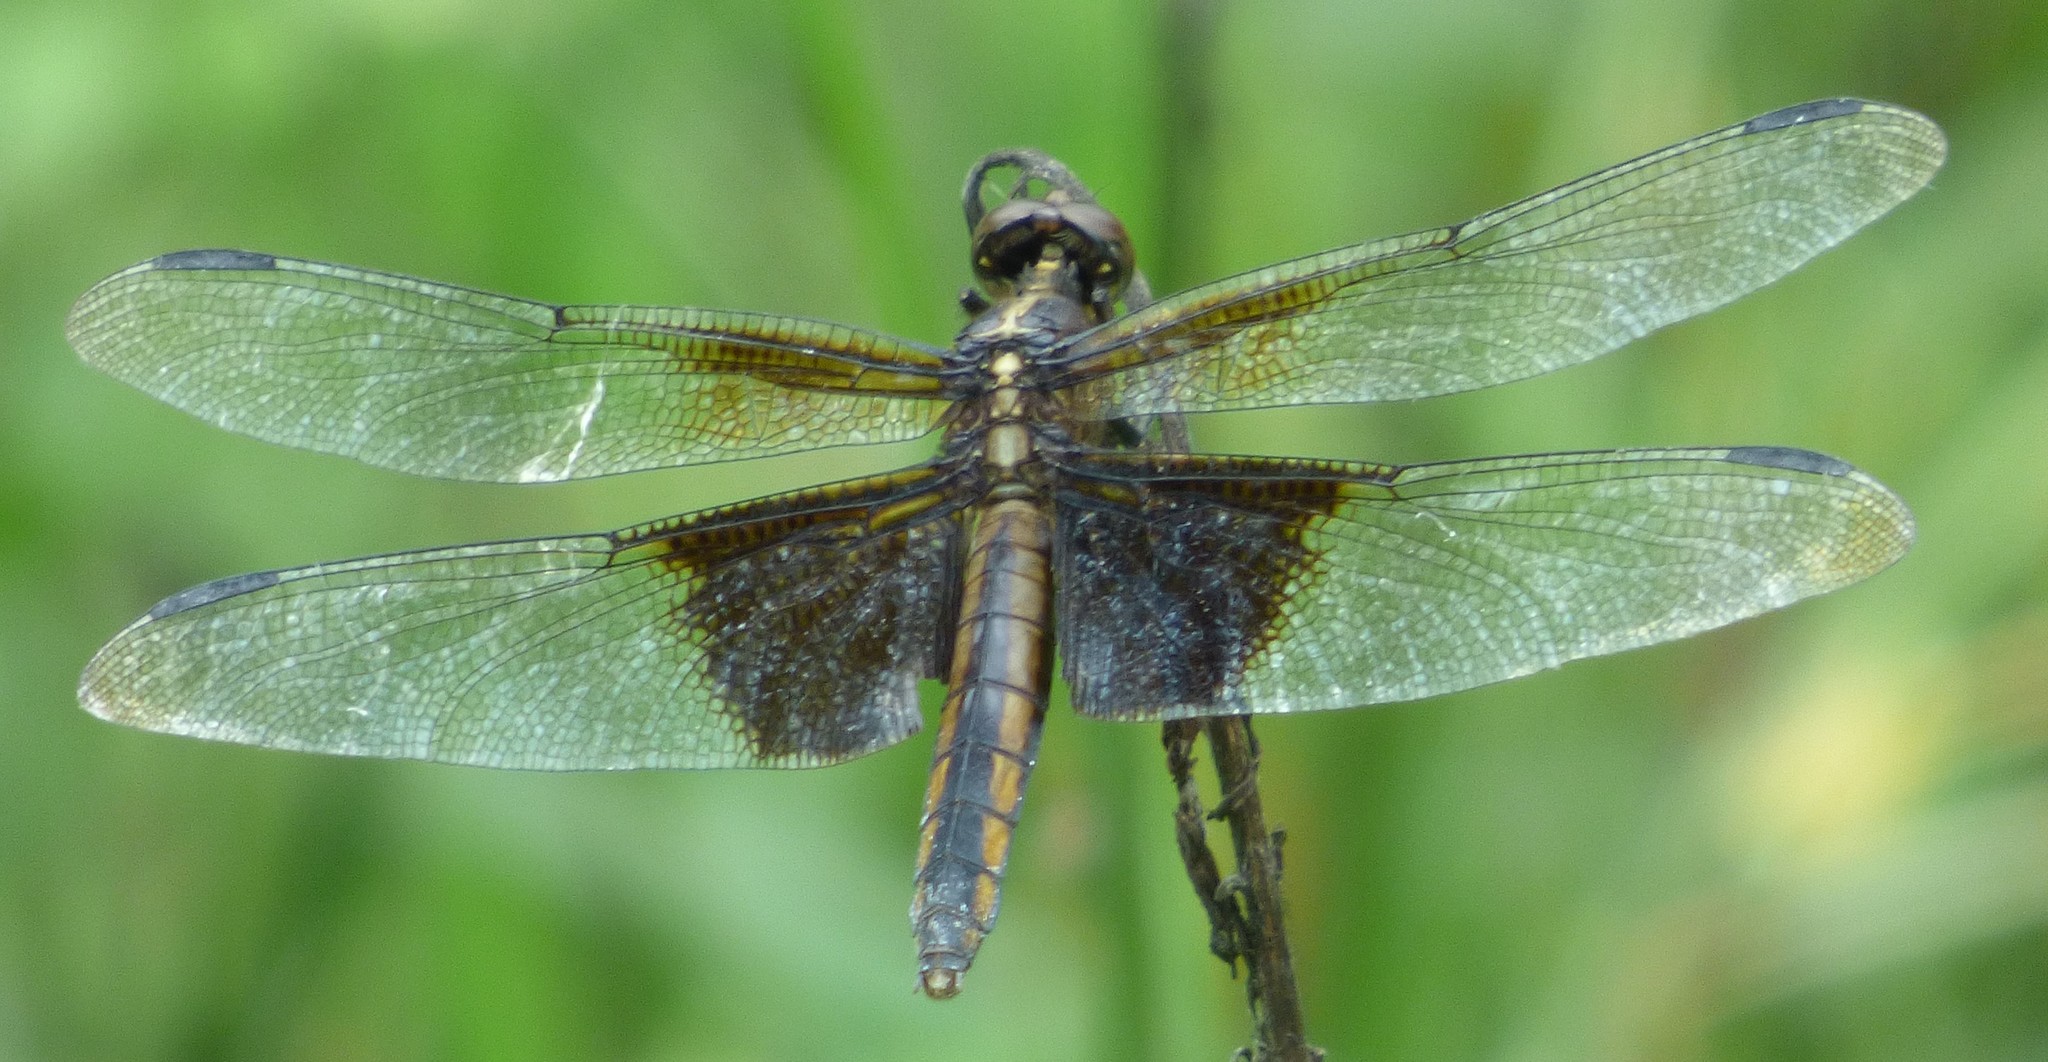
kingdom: Animalia
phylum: Arthropoda
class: Insecta
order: Odonata
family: Libellulidae
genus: Libellula
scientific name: Libellula luctuosa
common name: Widow skimmer
